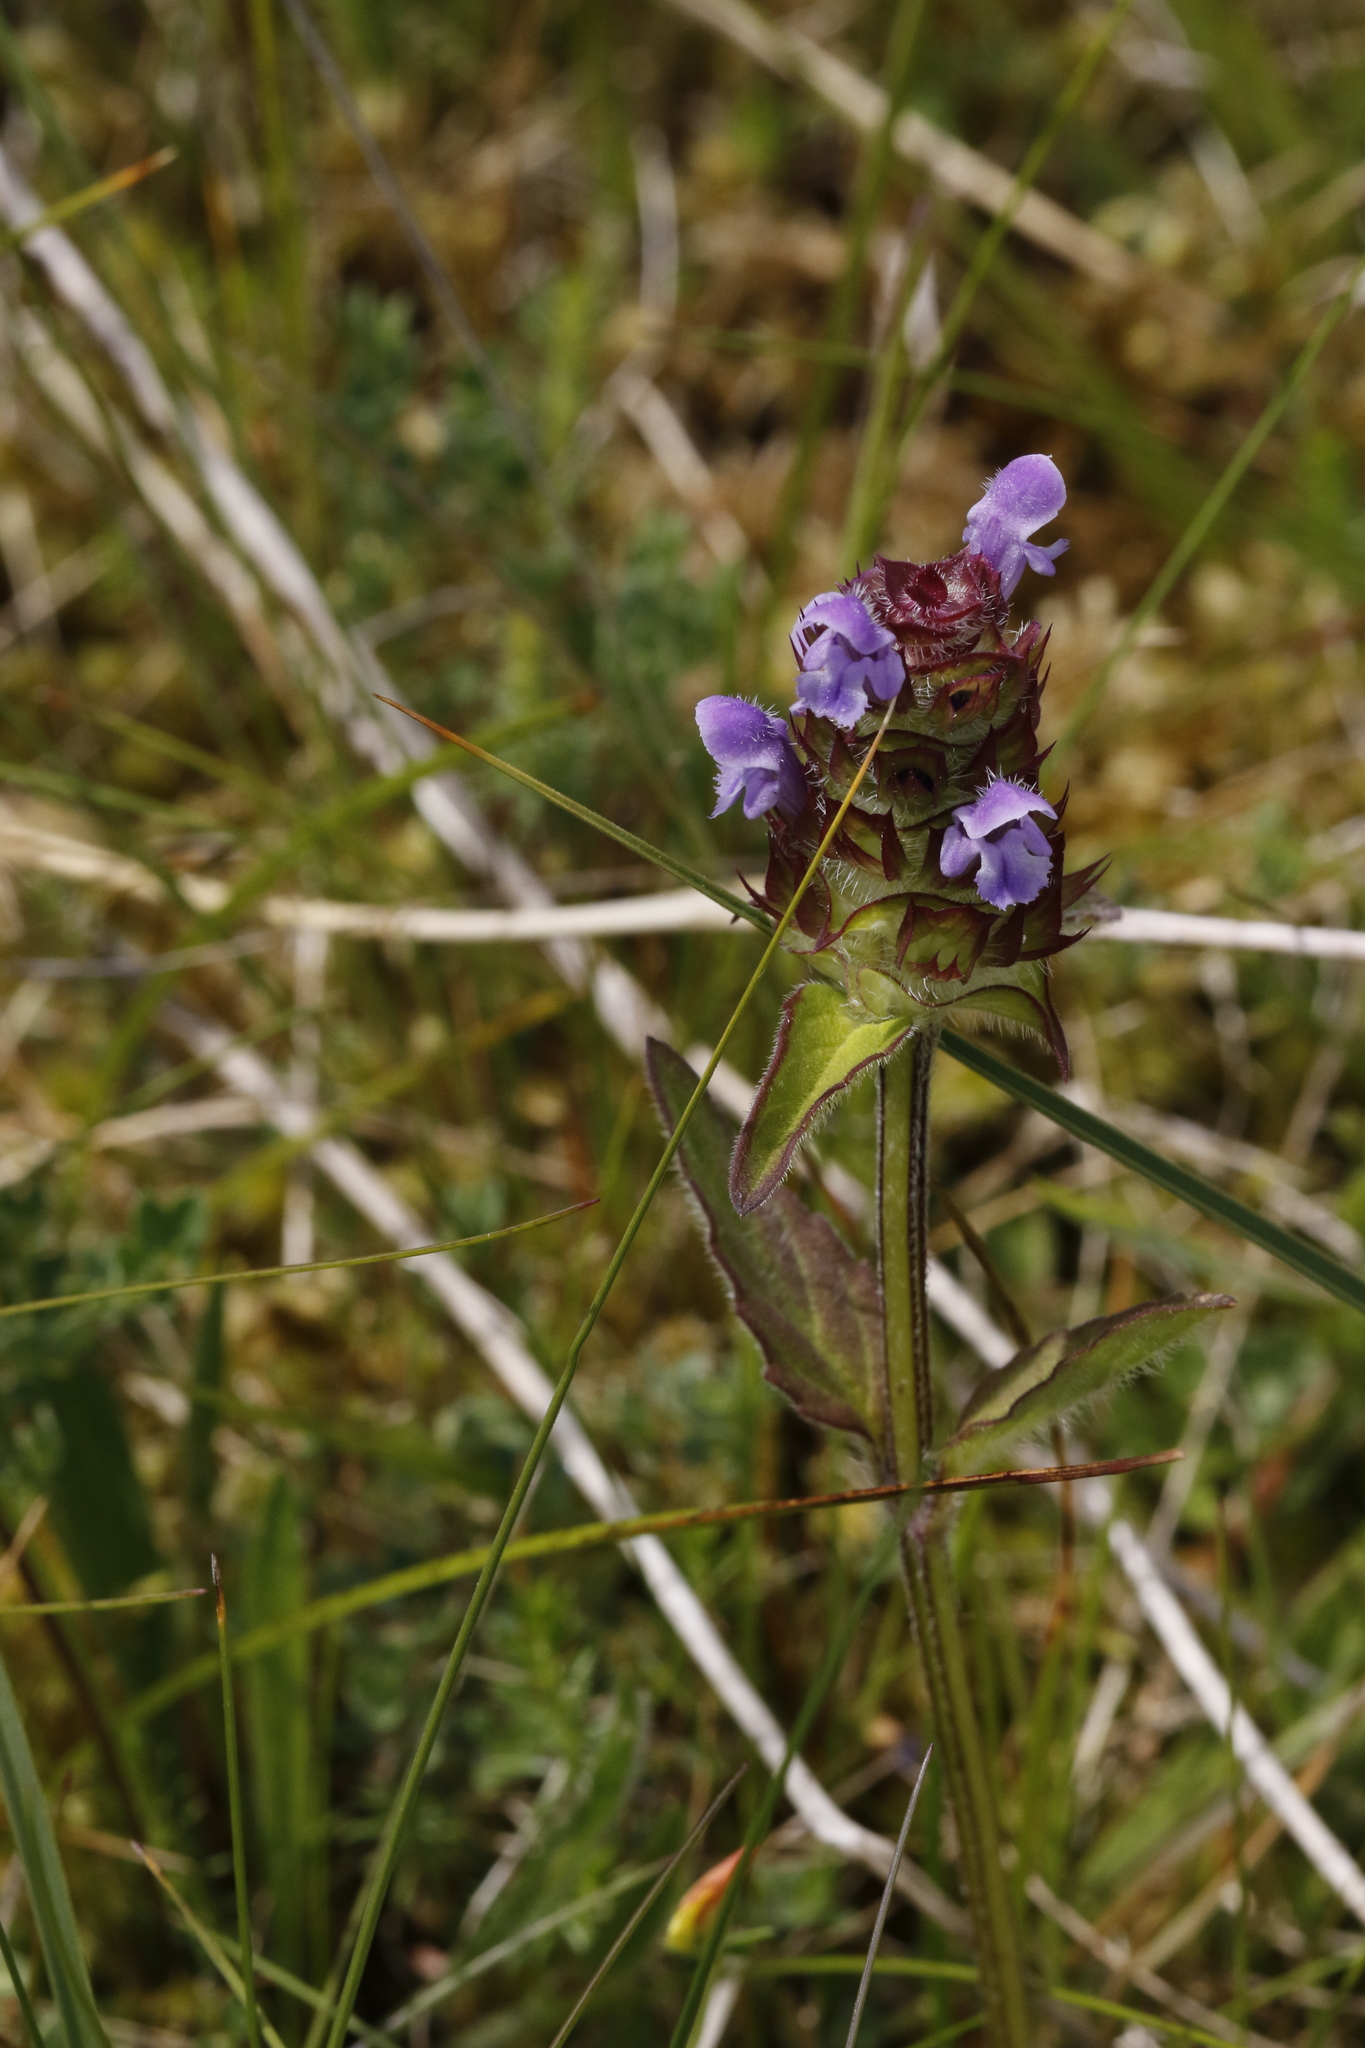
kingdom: Plantae
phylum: Tracheophyta
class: Magnoliopsida
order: Lamiales
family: Lamiaceae
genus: Prunella
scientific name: Prunella vulgaris
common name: Heal-all
